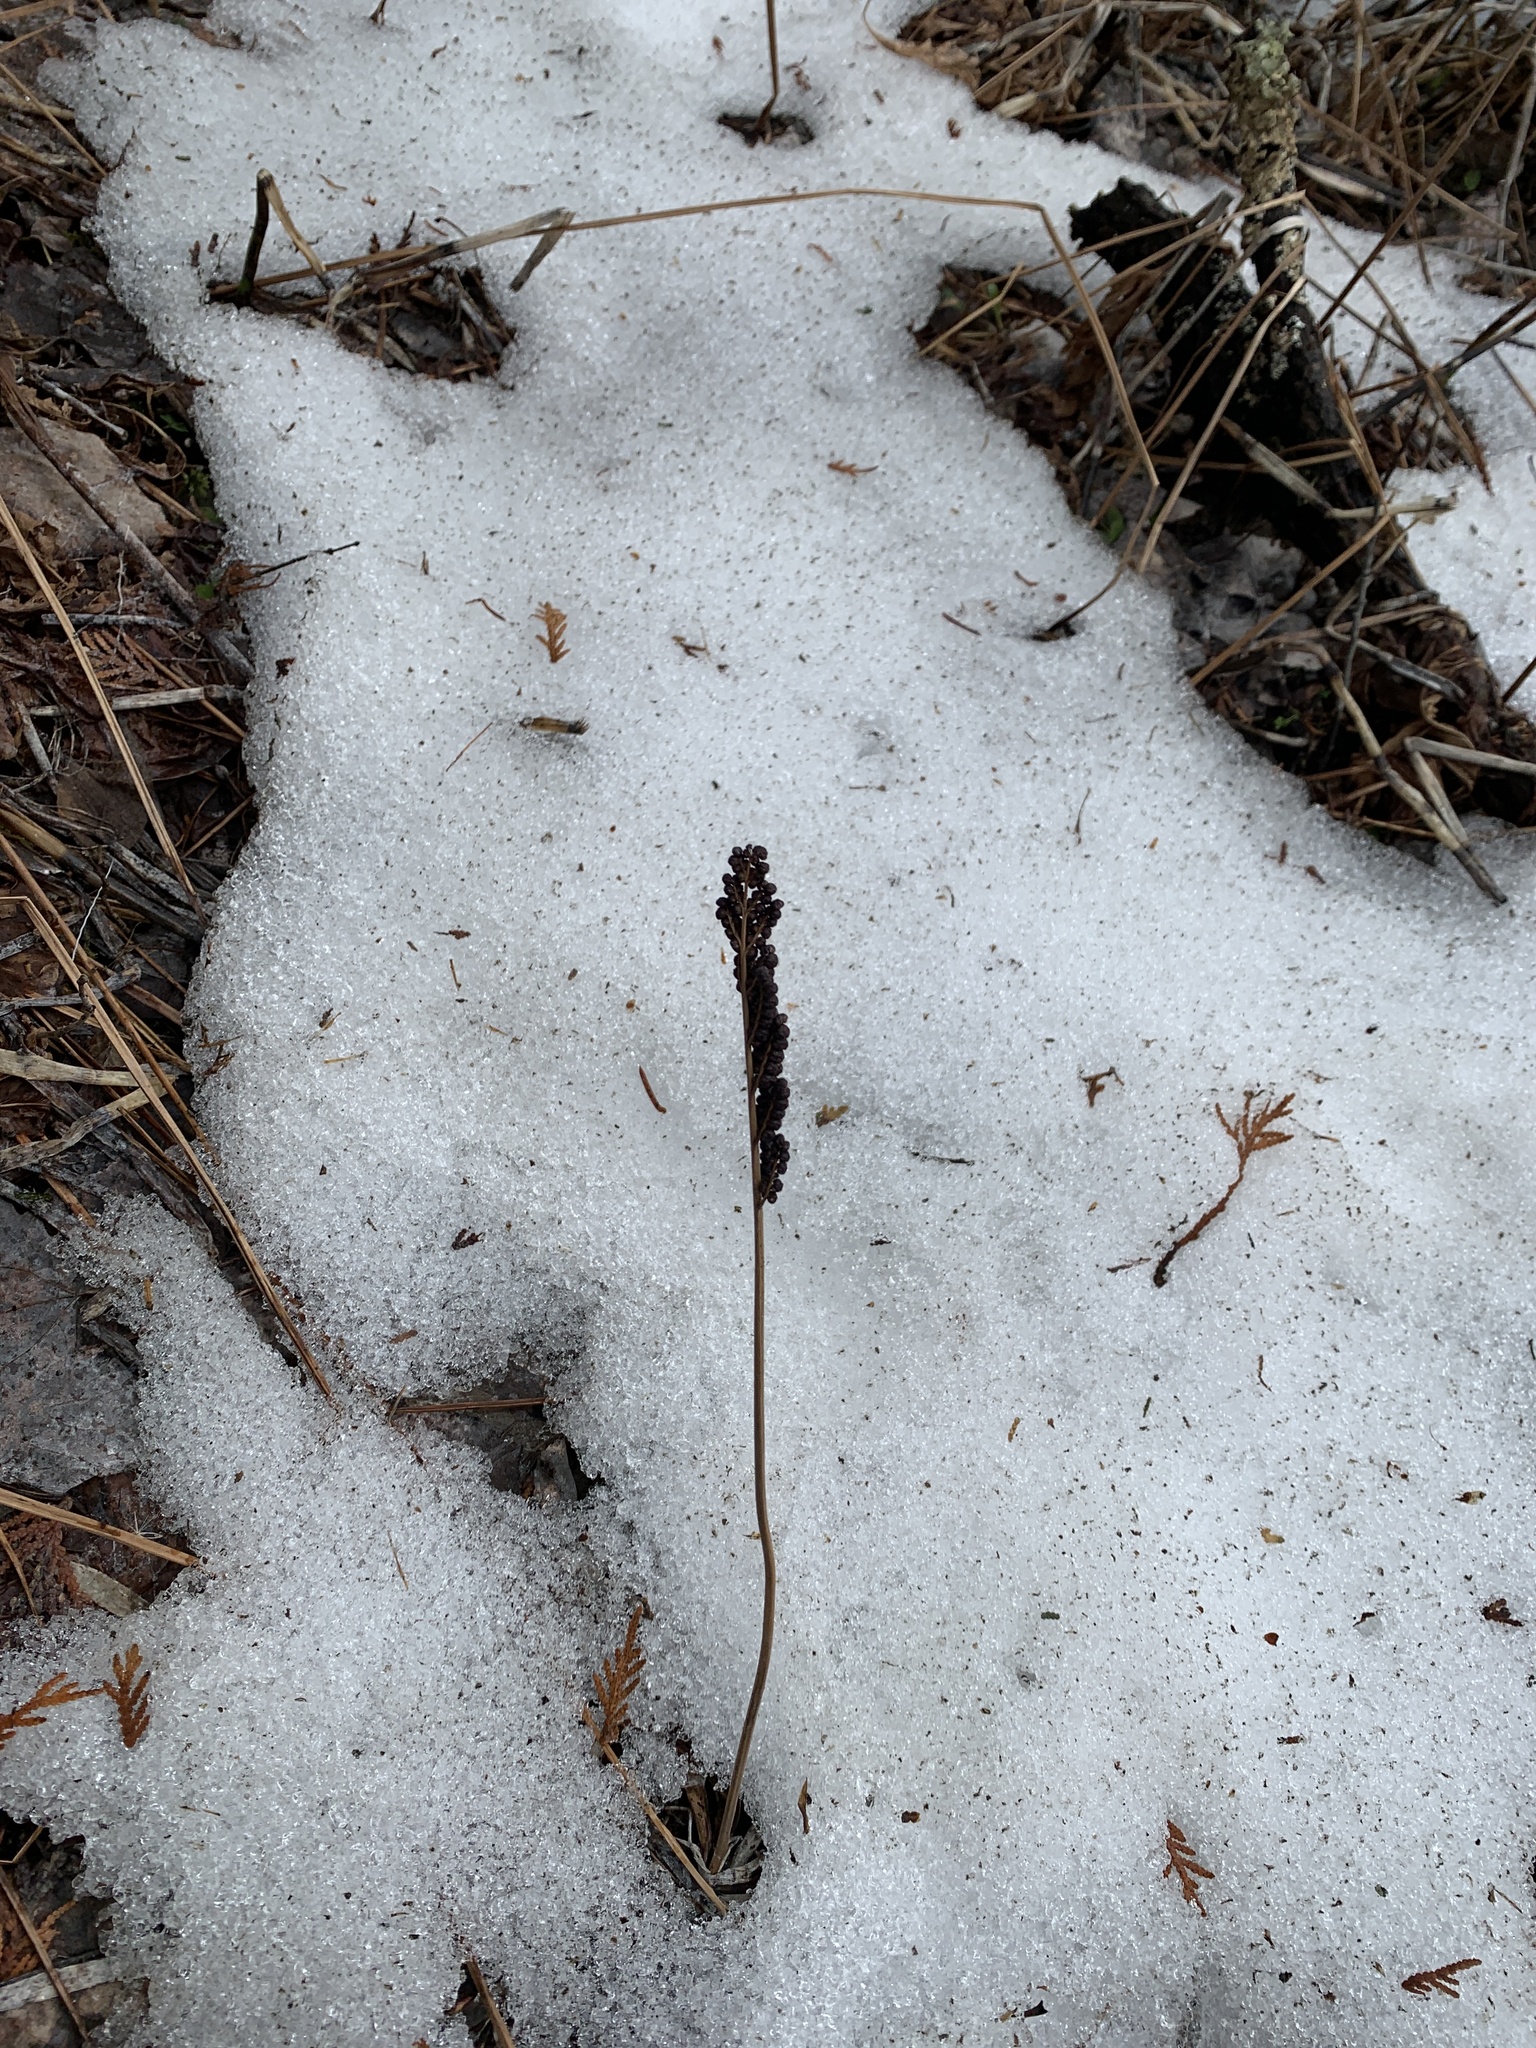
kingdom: Plantae
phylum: Tracheophyta
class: Polypodiopsida
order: Polypodiales
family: Onocleaceae
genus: Onoclea
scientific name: Onoclea sensibilis
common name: Sensitive fern
